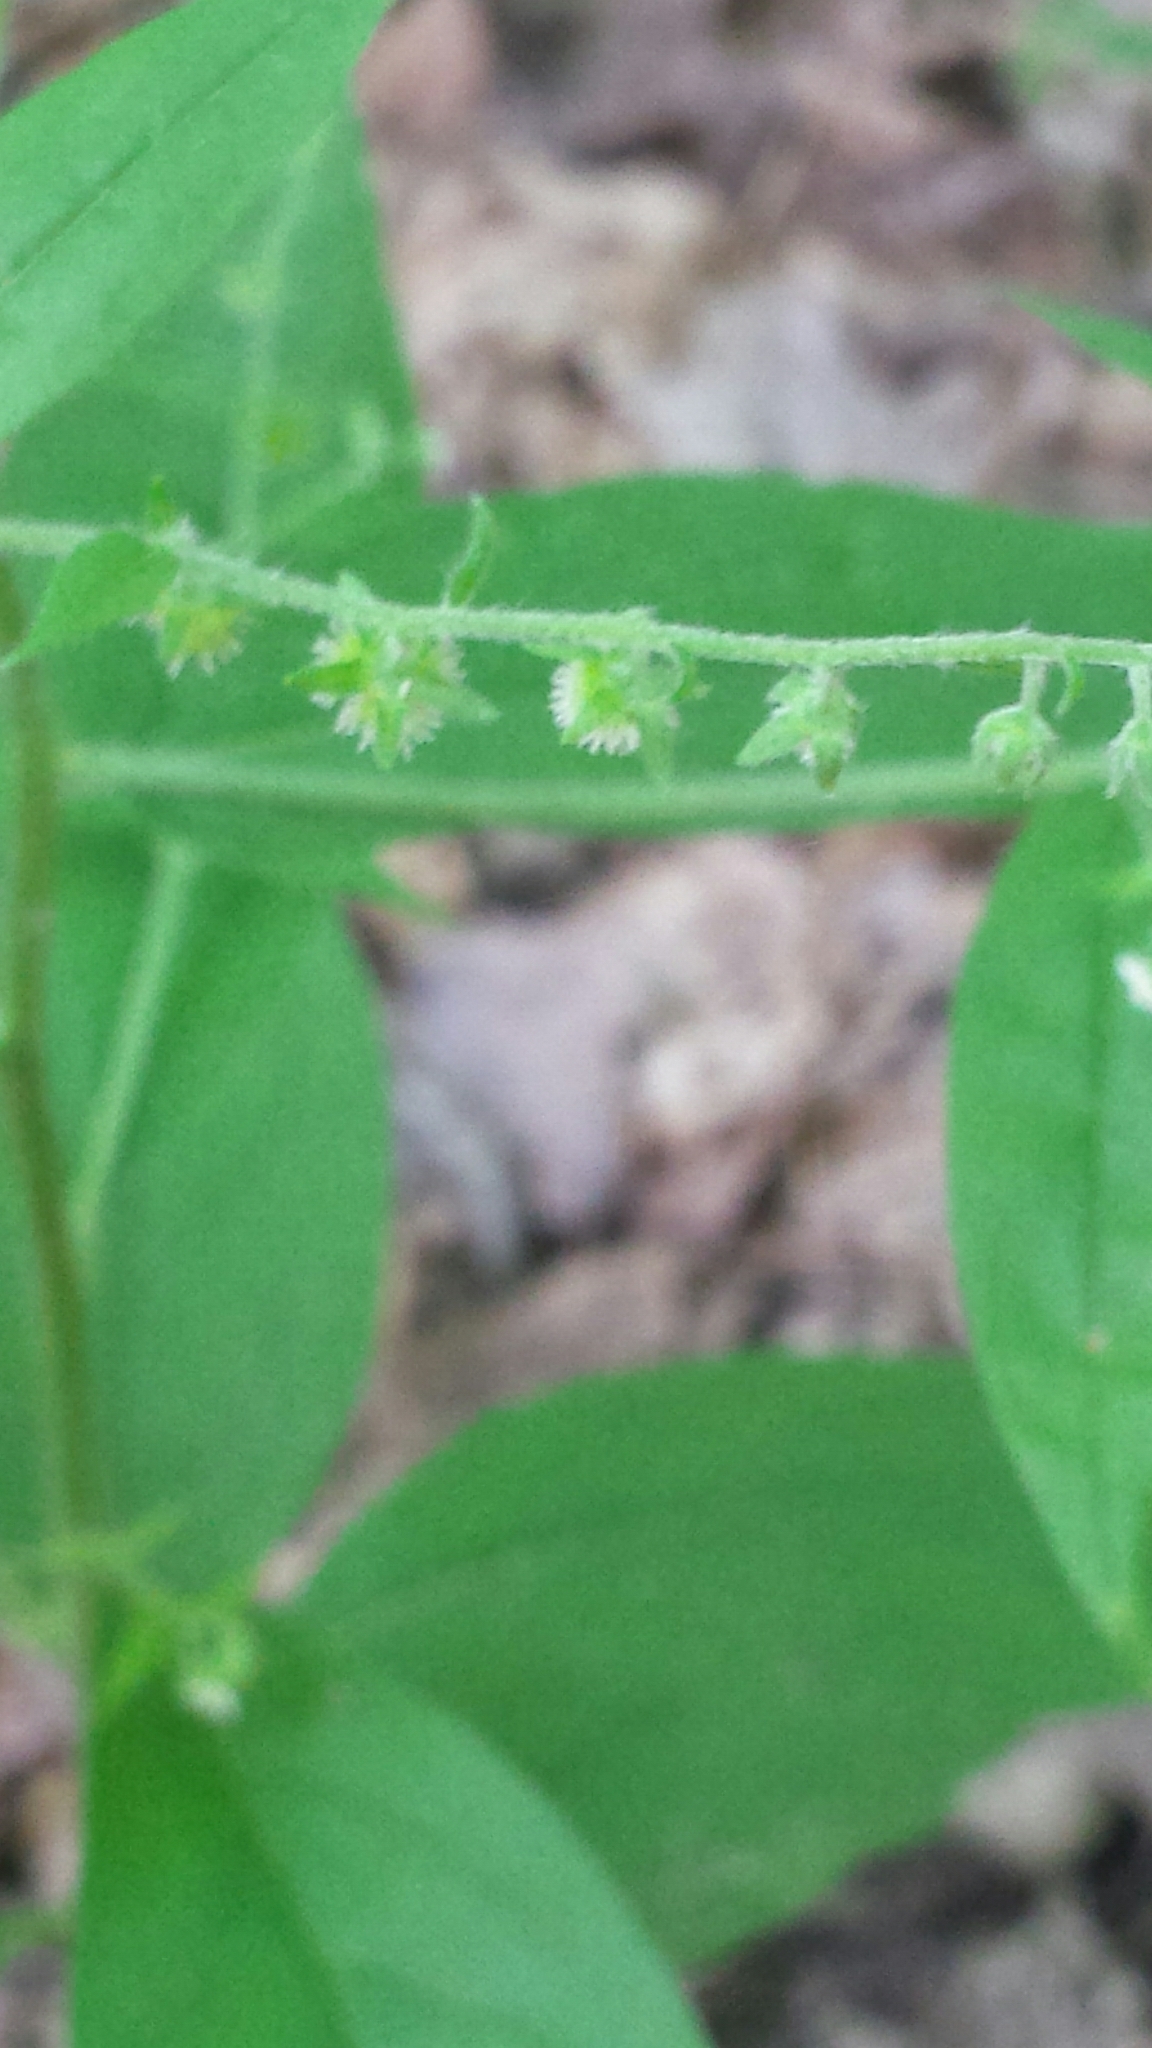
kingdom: Plantae
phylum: Tracheophyta
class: Magnoliopsida
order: Boraginales
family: Boraginaceae
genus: Hackelia
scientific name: Hackelia virginiana
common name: Beggar's-lice
